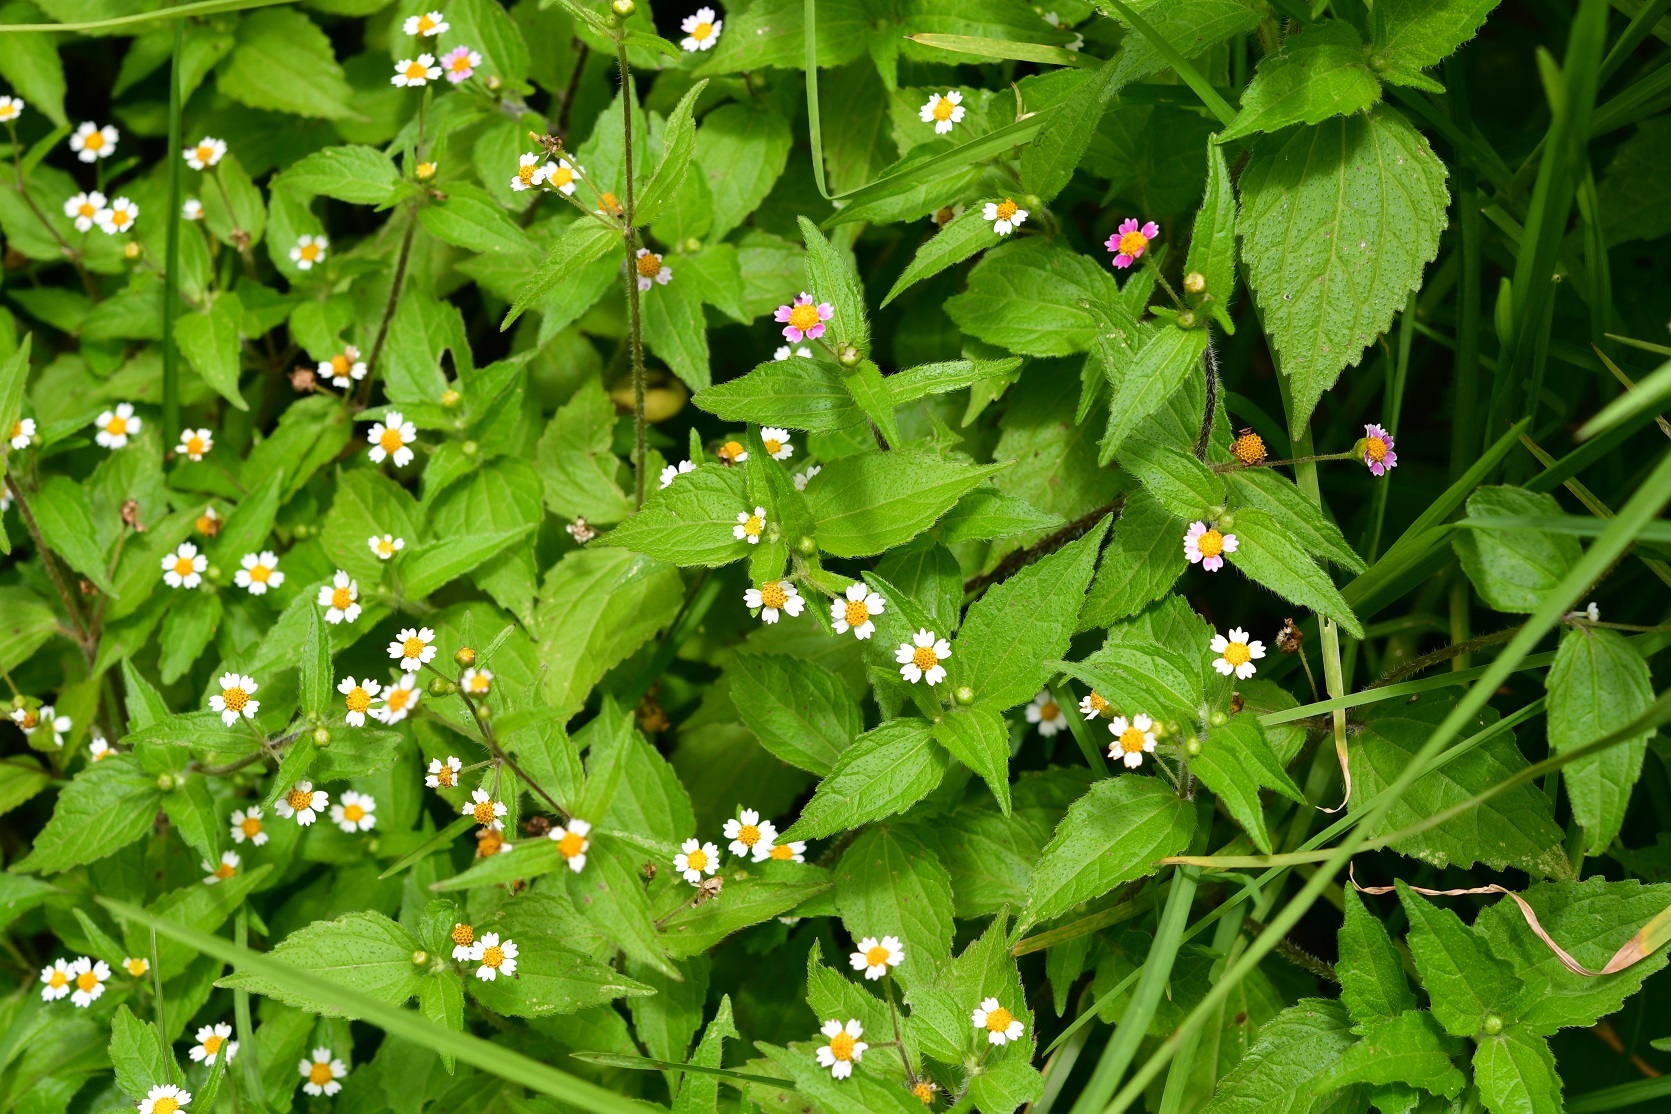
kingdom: Plantae
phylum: Tracheophyta
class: Magnoliopsida
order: Asterales
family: Asteraceae
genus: Galinsoga
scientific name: Galinsoga quadriradiata
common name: Shaggy soldier
